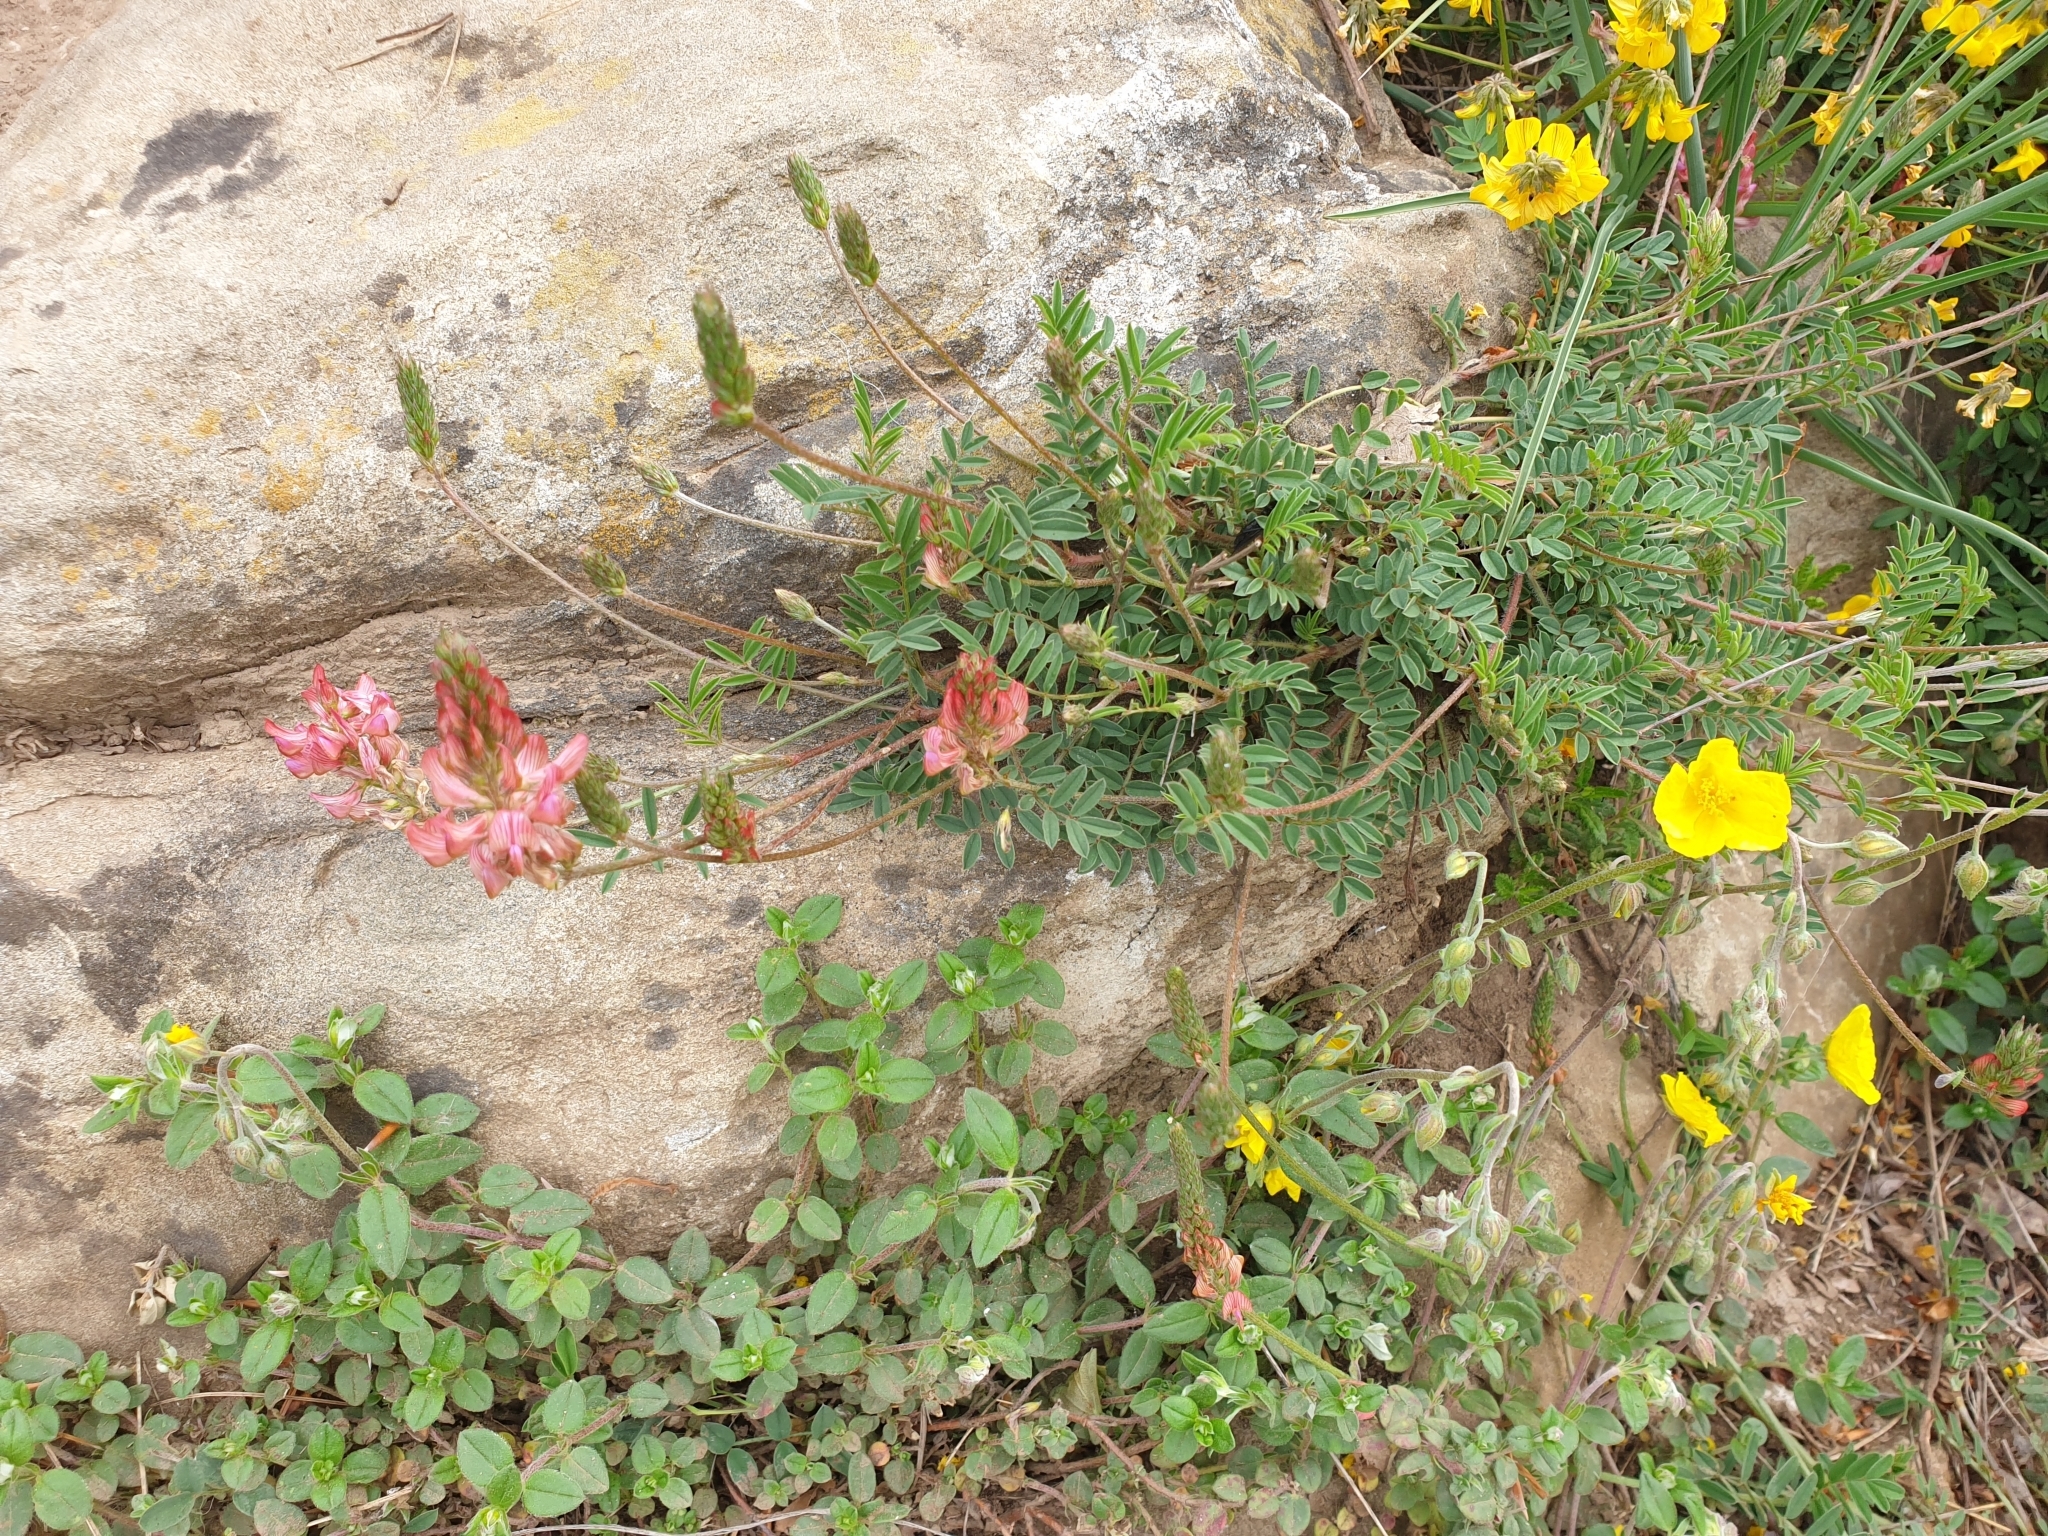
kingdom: Plantae
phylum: Tracheophyta
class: Magnoliopsida
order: Fabales
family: Fabaceae
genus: Onobrychis
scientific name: Onobrychis viciifolia
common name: Sainfoin
